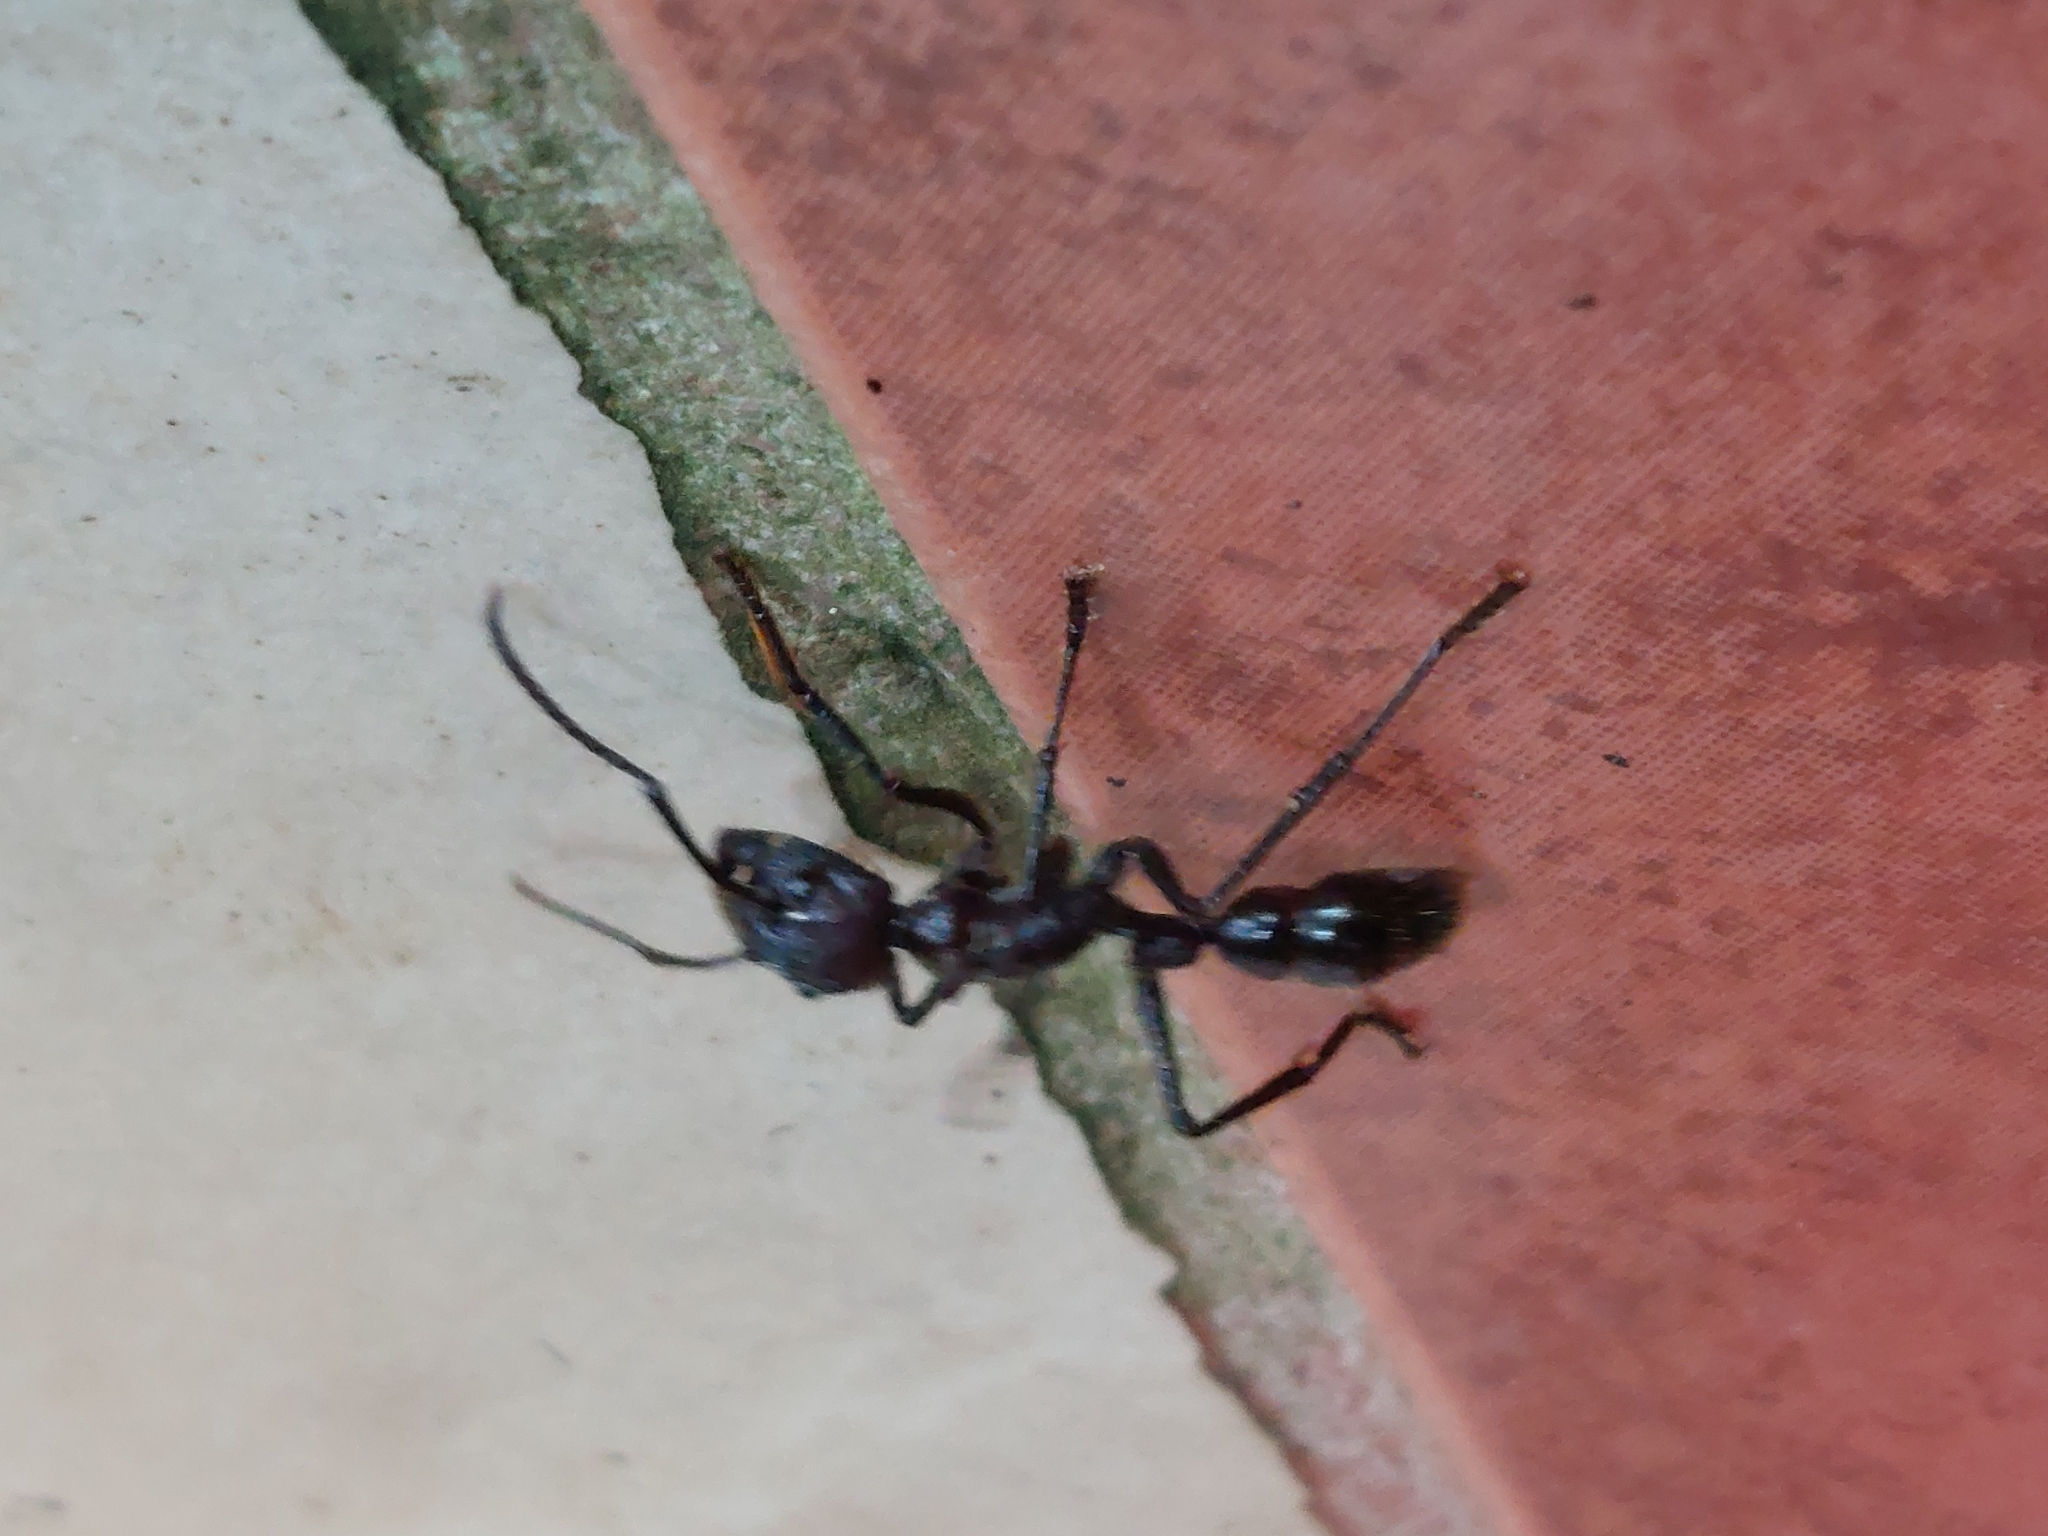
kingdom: Animalia
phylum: Arthropoda
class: Insecta
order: Hymenoptera
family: Formicidae
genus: Paraponera
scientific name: Paraponera clavata
